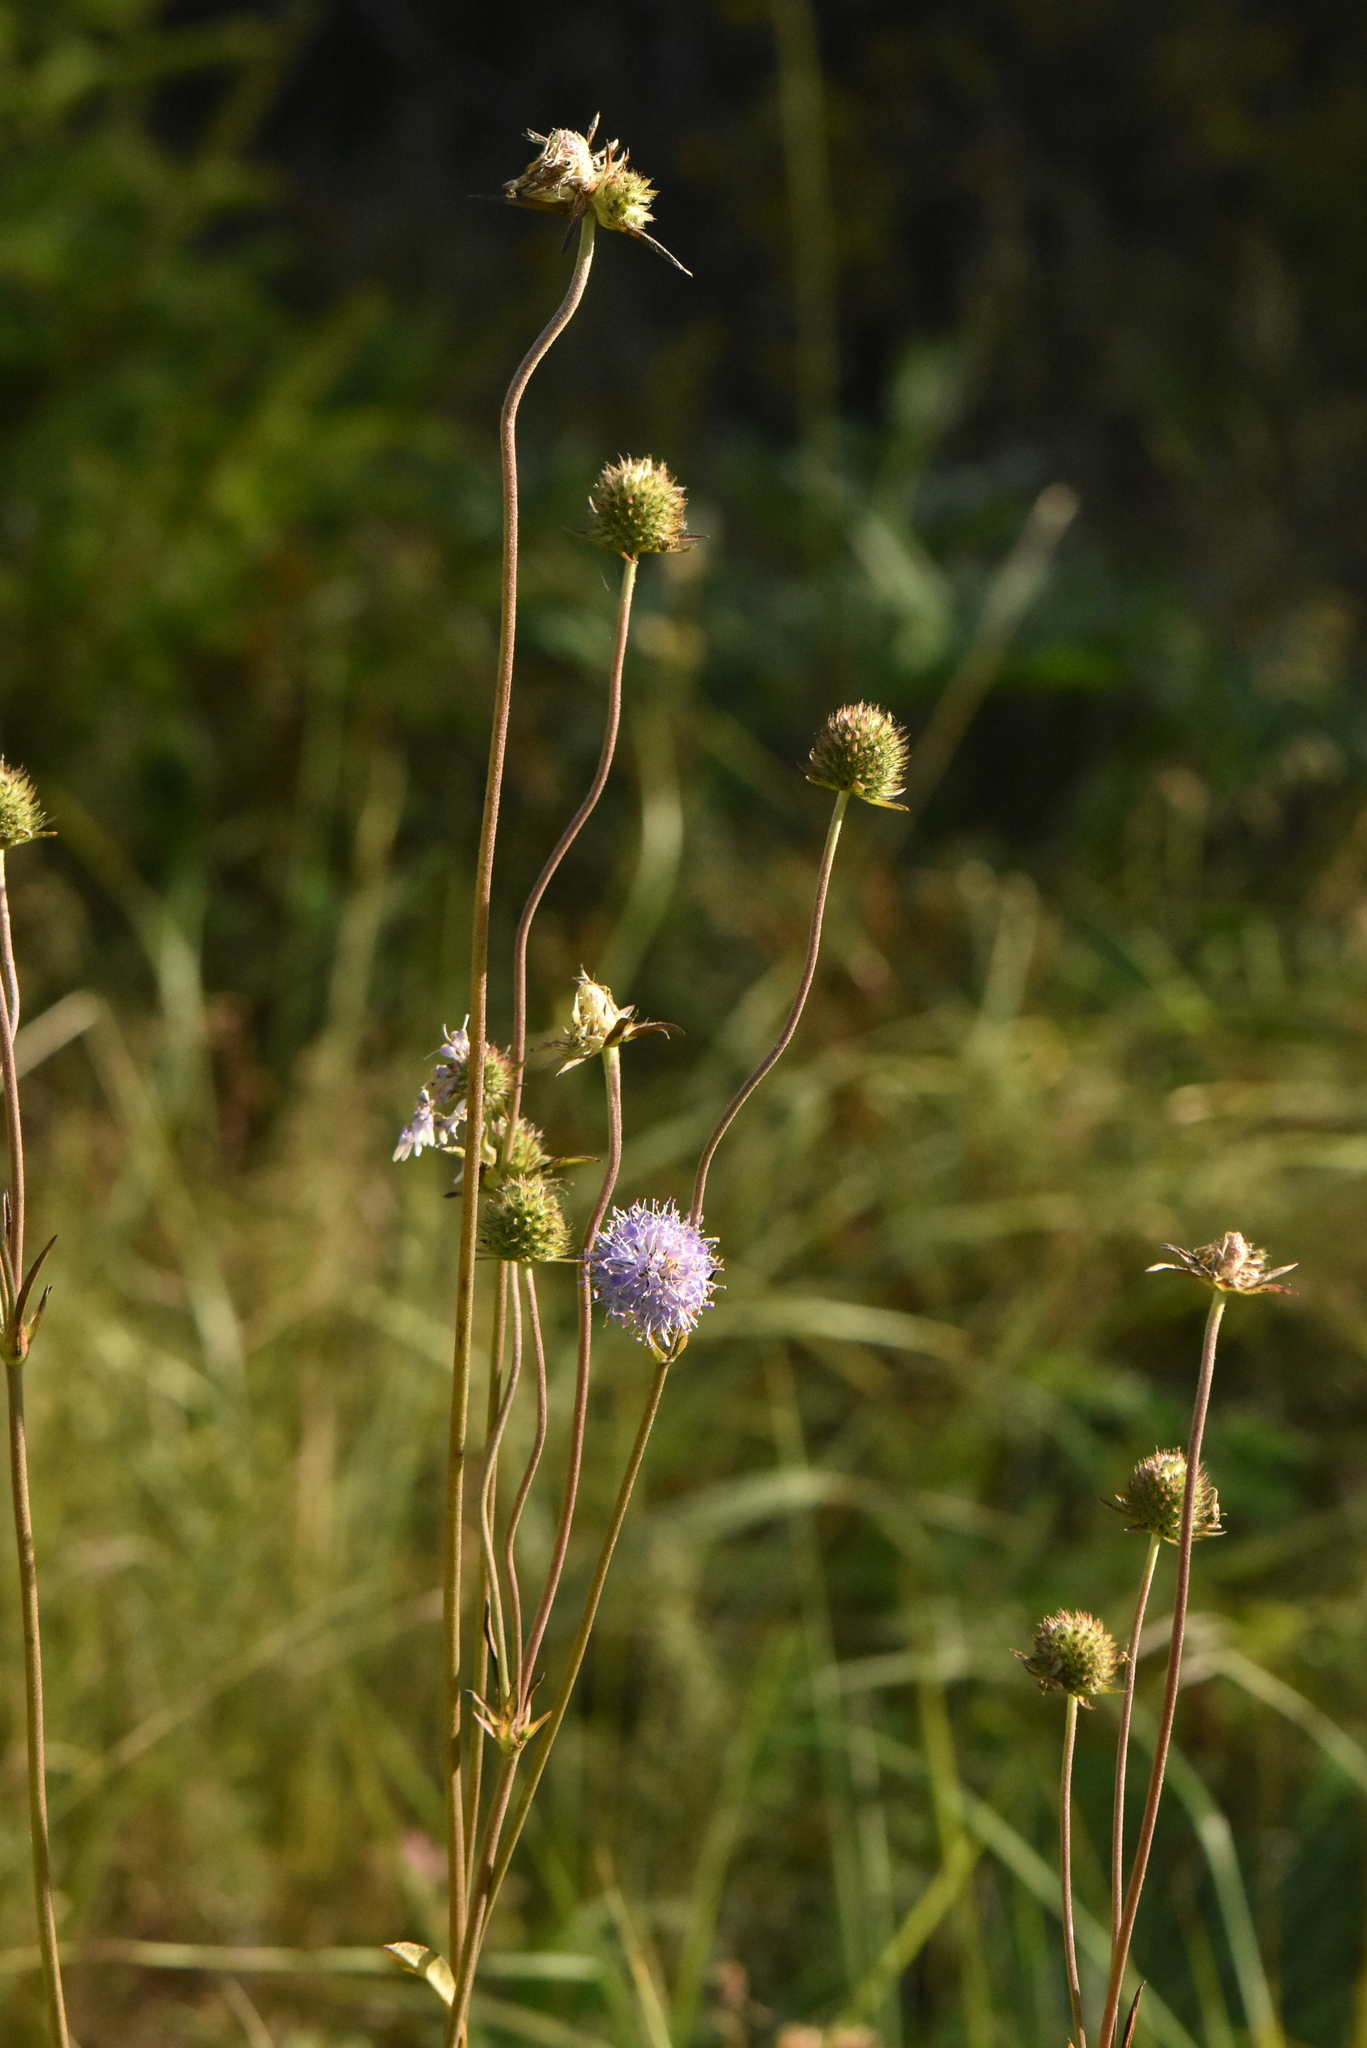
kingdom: Plantae
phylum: Tracheophyta
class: Magnoliopsida
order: Dipsacales
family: Caprifoliaceae
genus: Succisa
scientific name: Succisa pratensis
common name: Devil's-bit
